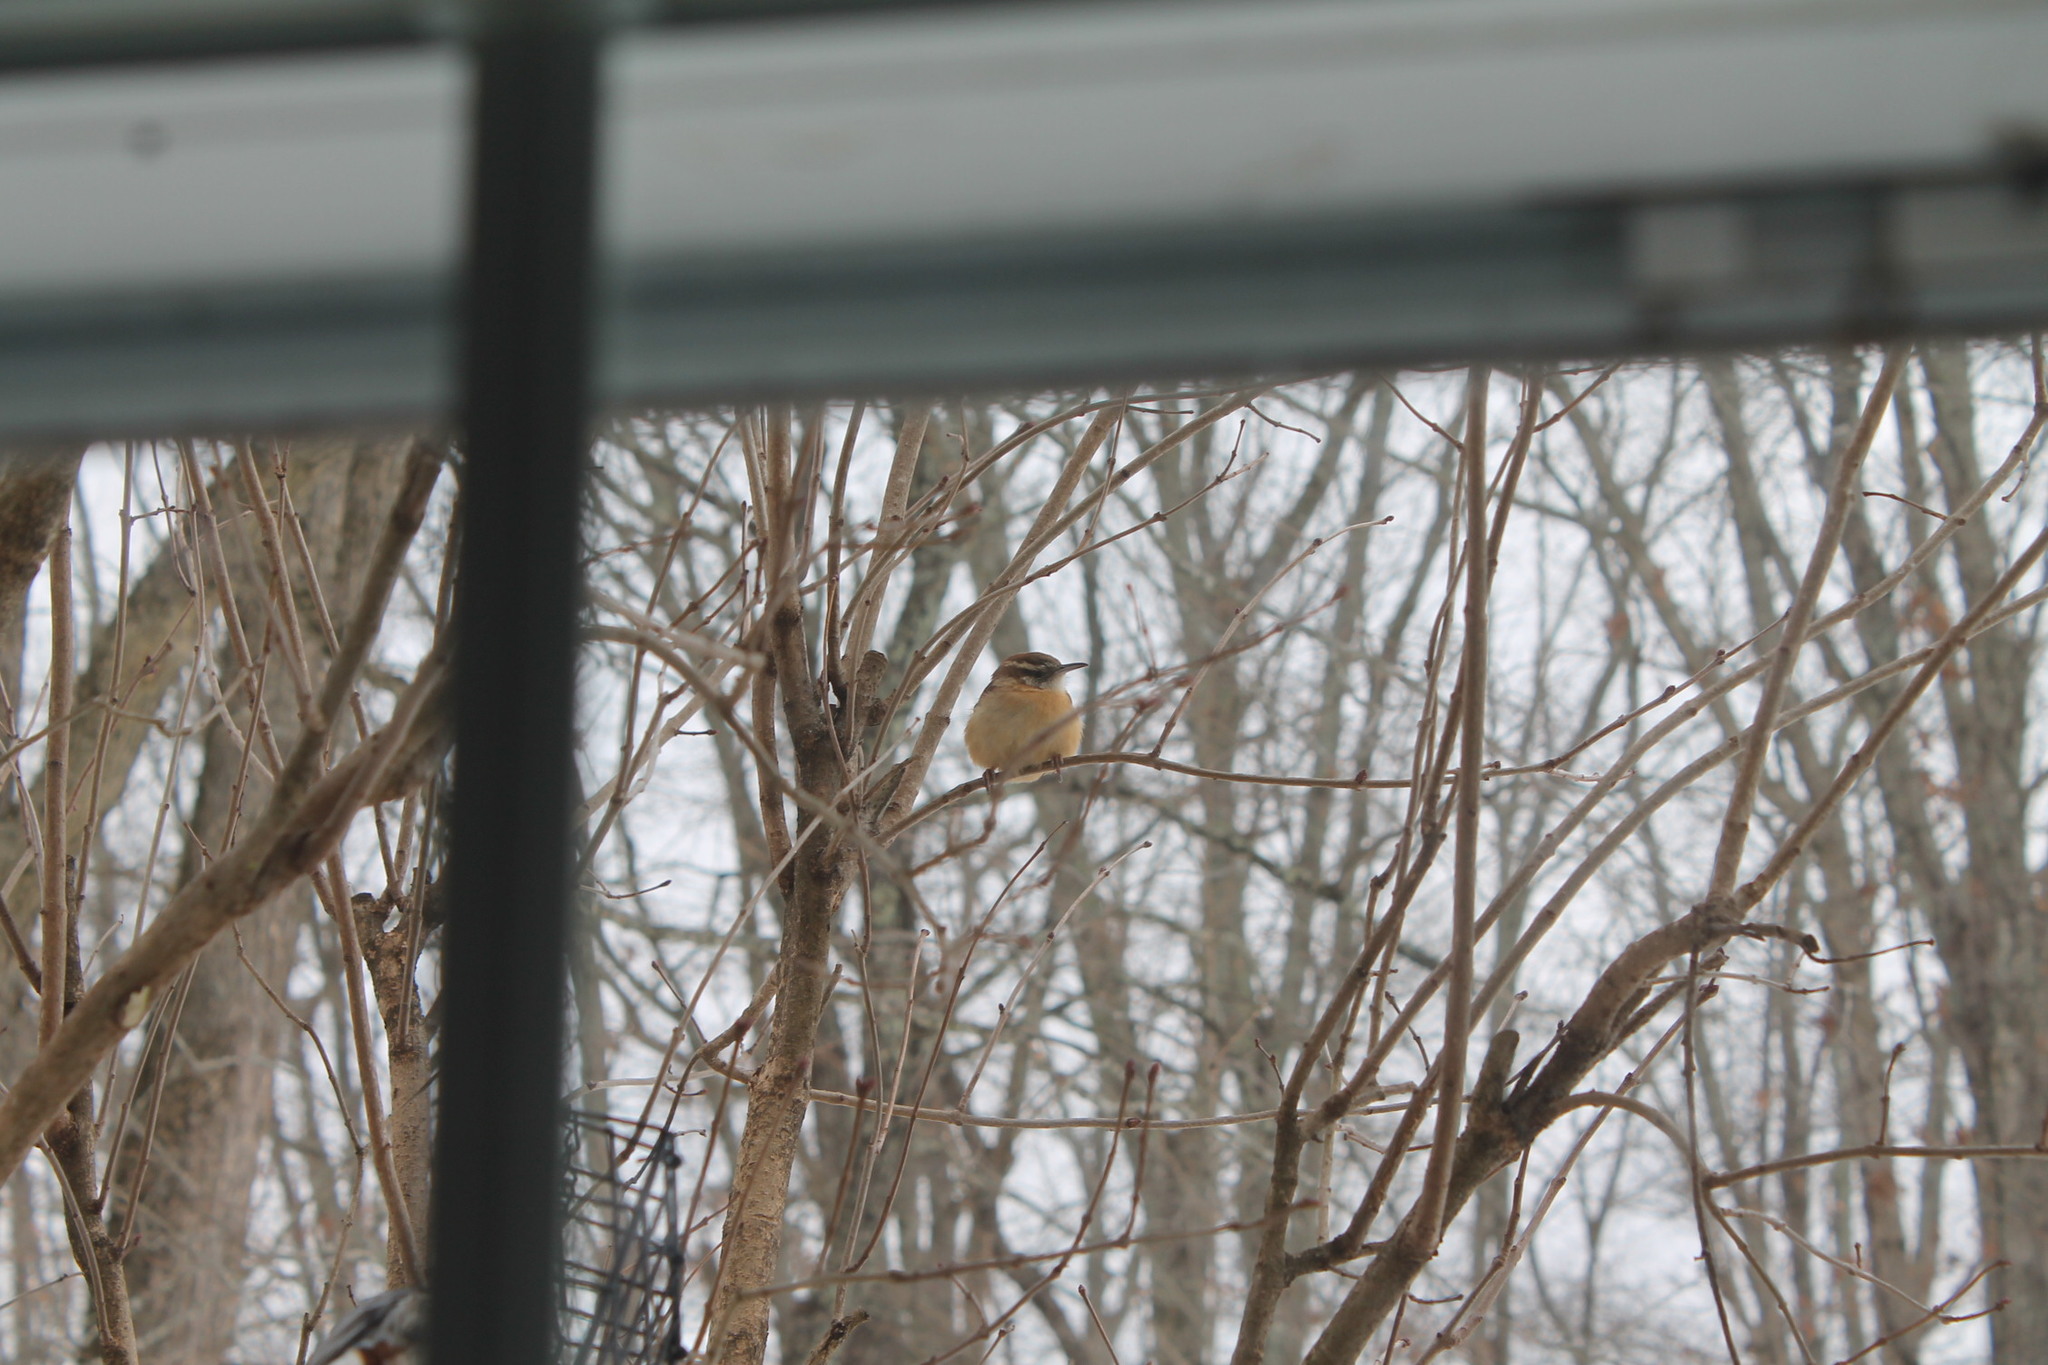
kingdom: Animalia
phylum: Chordata
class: Aves
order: Passeriformes
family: Troglodytidae
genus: Thryothorus
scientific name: Thryothorus ludovicianus
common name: Carolina wren
